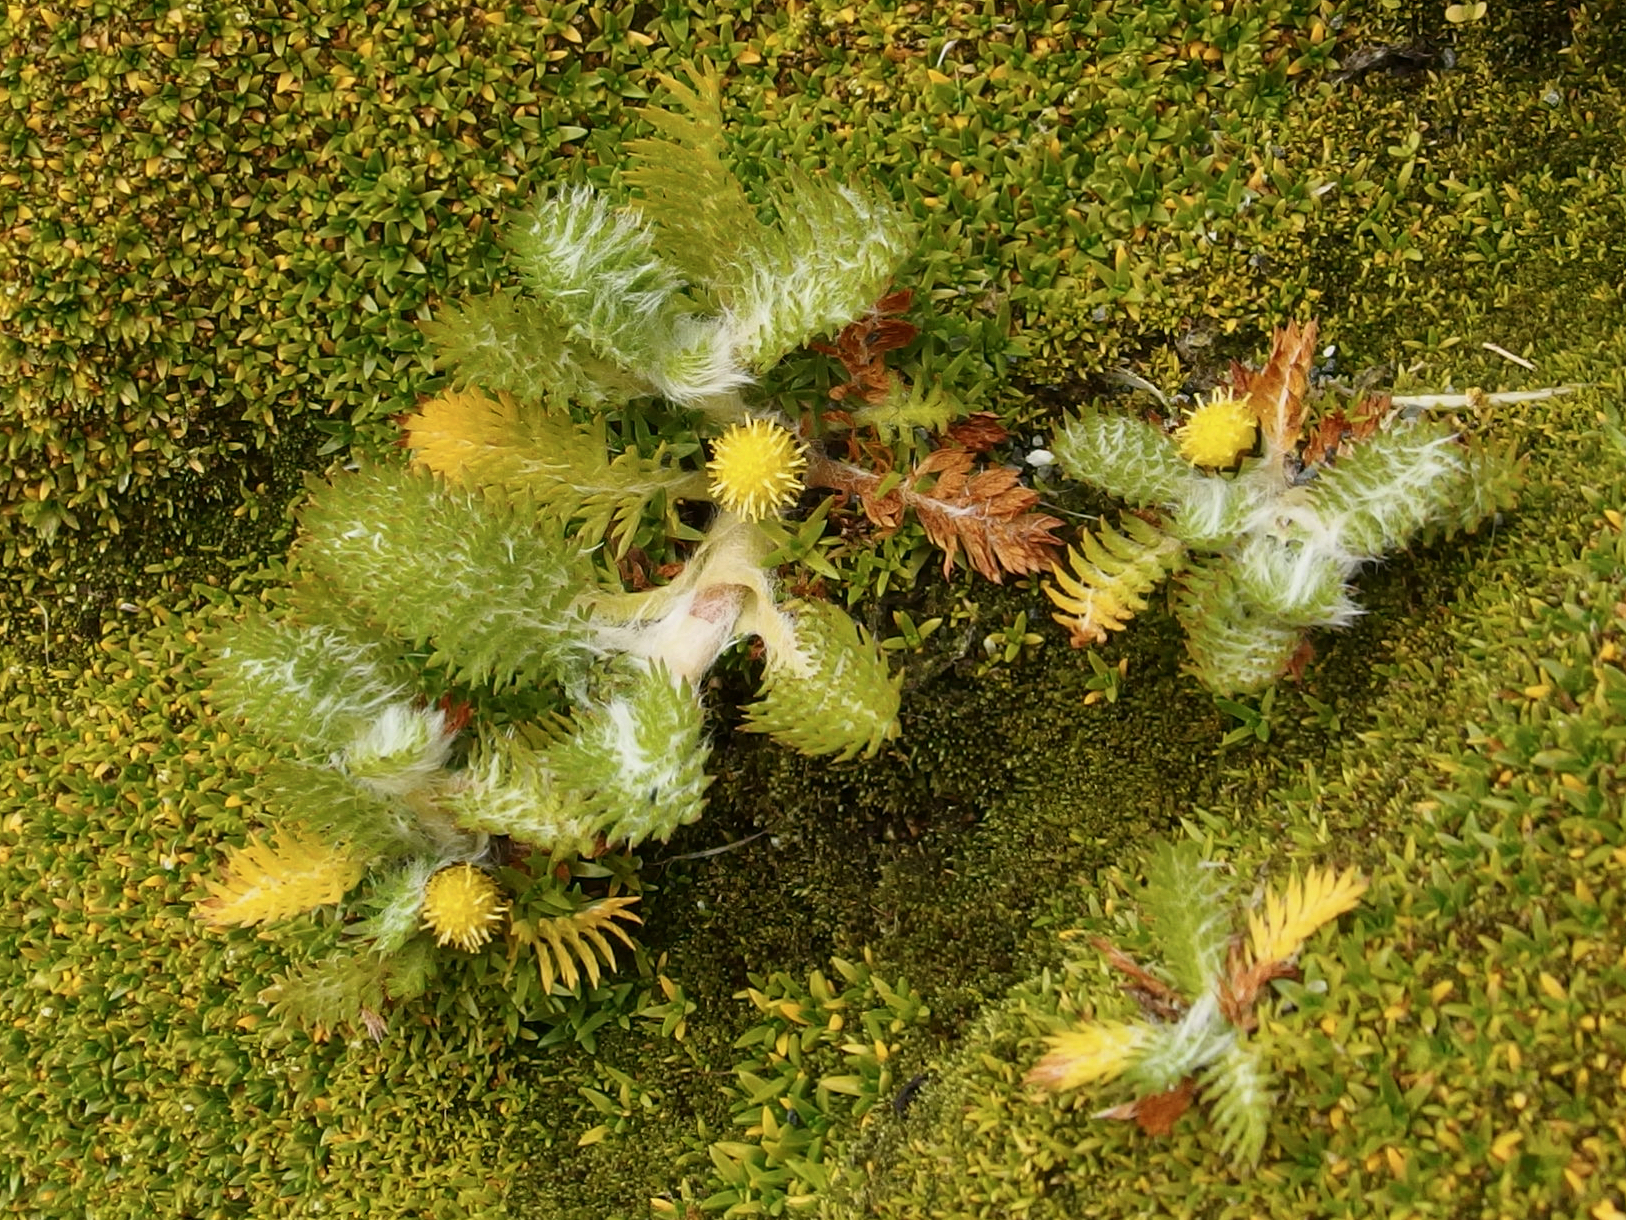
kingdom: Plantae
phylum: Tracheophyta
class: Magnoliopsida
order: Asterales
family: Asteraceae
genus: Leptinella
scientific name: Leptinella plumosa
